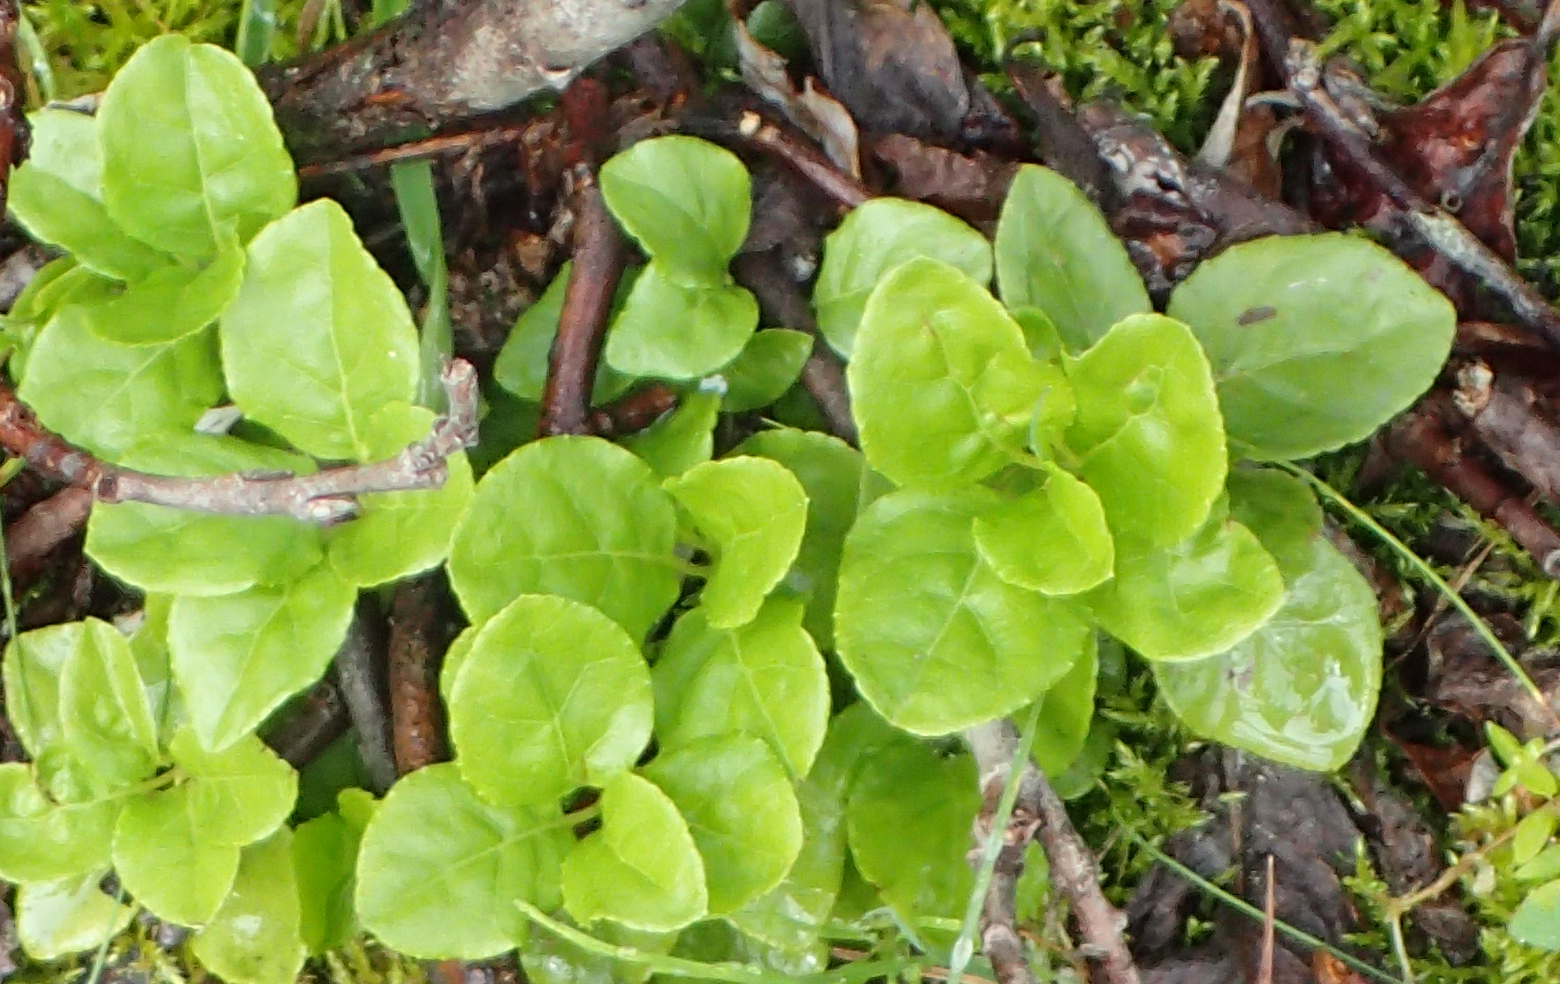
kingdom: Plantae
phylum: Tracheophyta
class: Magnoliopsida
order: Ericales
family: Ericaceae
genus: Orthilia
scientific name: Orthilia secunda
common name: One-sided orthilia
